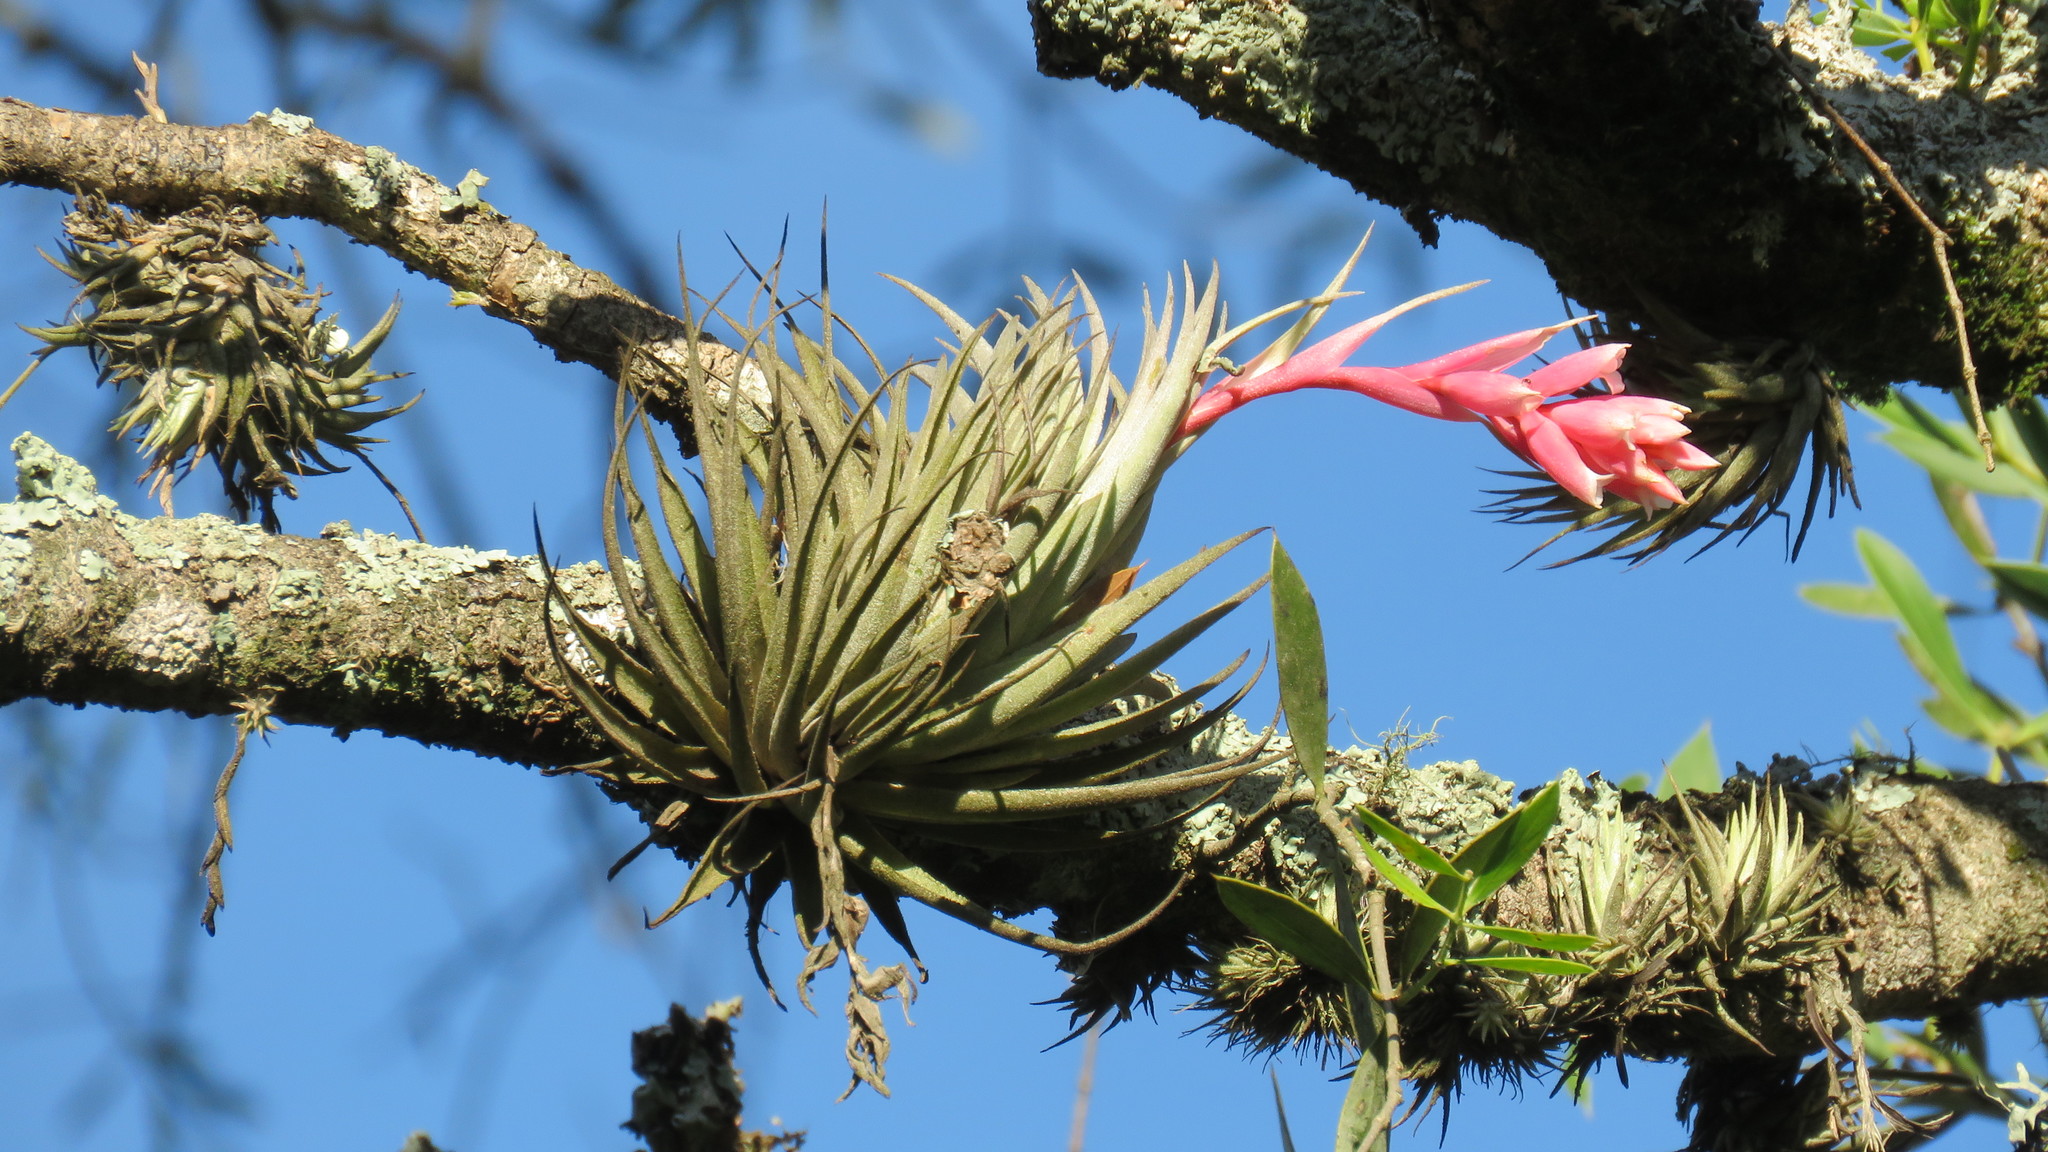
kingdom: Plantae
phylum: Tracheophyta
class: Liliopsida
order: Poales
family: Bromeliaceae
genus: Tillandsia
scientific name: Tillandsia recurvifolia
